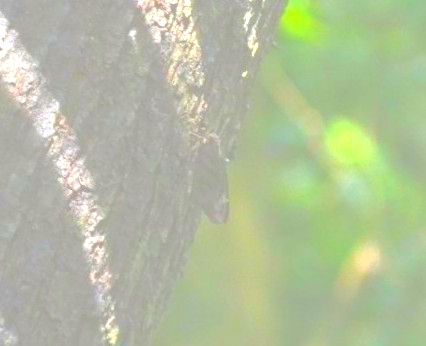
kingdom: Animalia
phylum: Arthropoda
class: Insecta
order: Lepidoptera
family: Hesperiidae
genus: Gangara
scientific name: Gangara thyrsis
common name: Giant redeye
